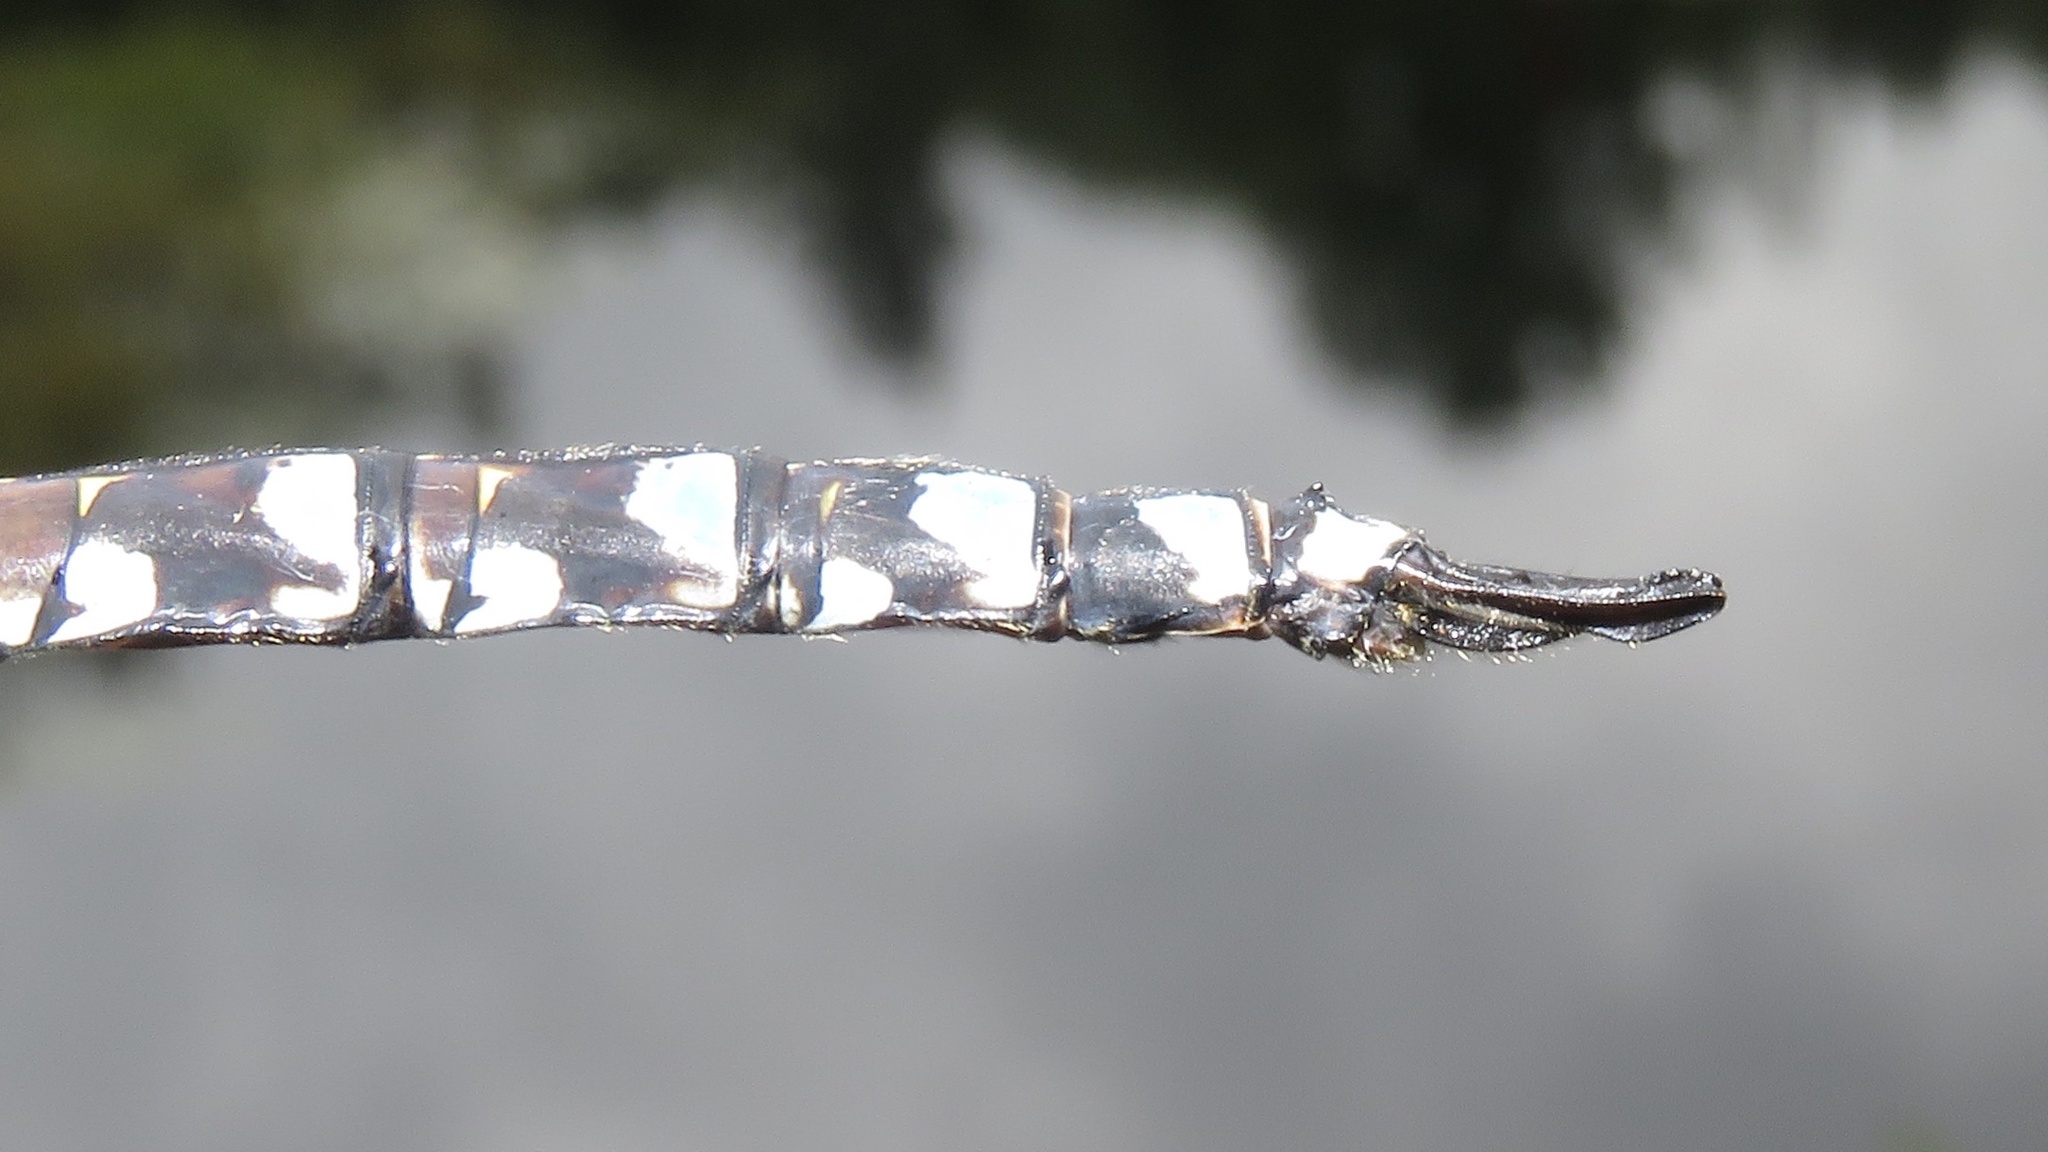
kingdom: Animalia
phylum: Arthropoda
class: Insecta
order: Odonata
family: Aeshnidae
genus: Aeshna
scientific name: Aeshna eremita
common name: Lake darner
